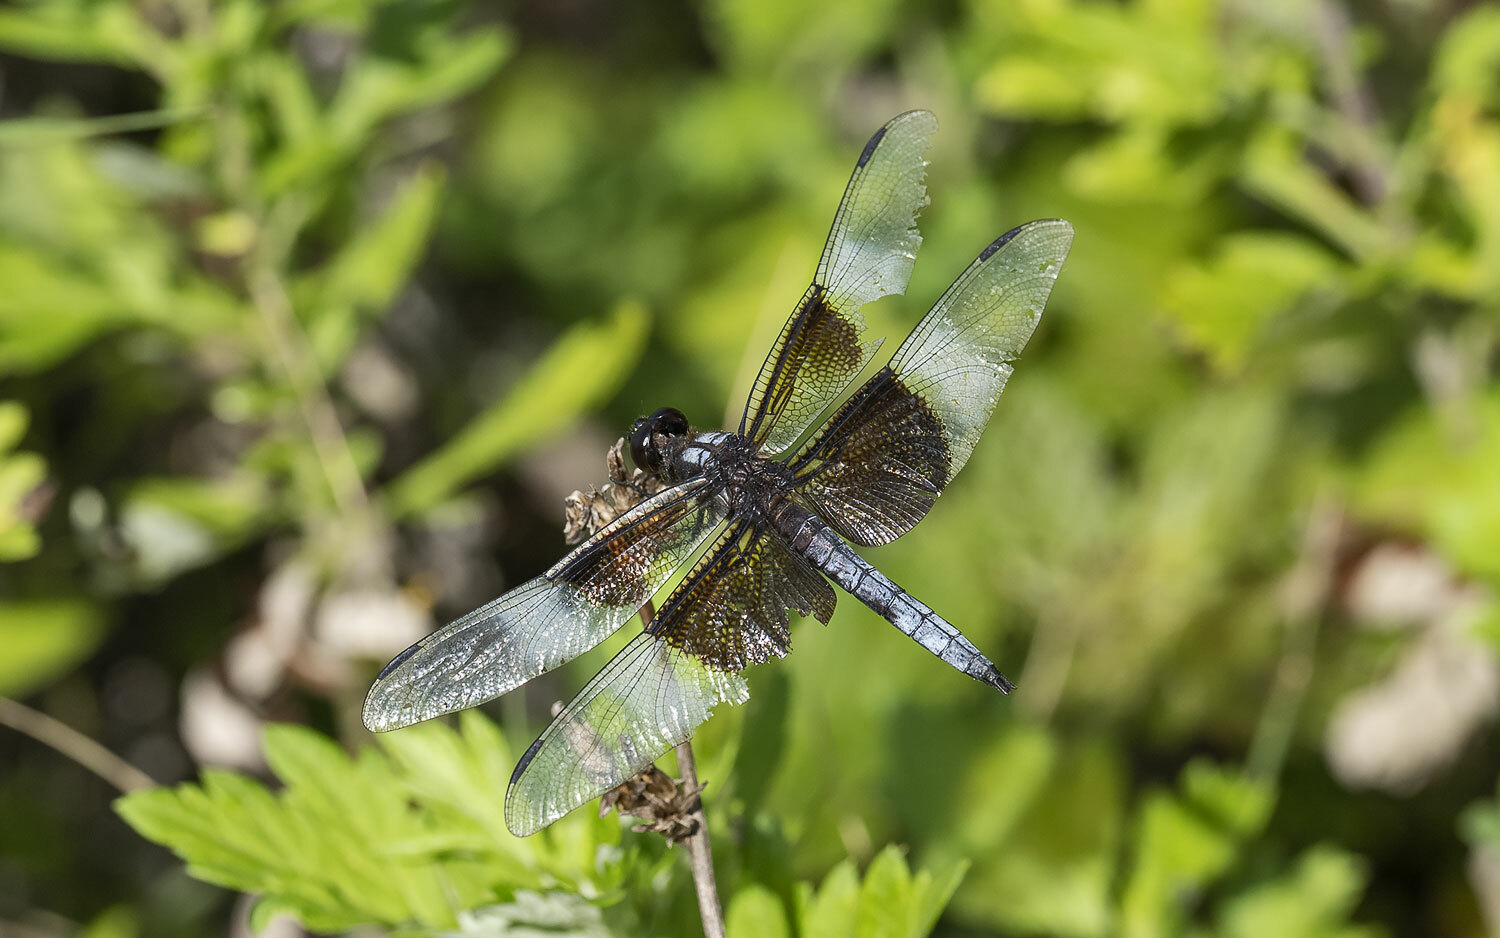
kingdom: Animalia
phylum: Arthropoda
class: Insecta
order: Odonata
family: Libellulidae
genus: Libellula
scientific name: Libellula luctuosa
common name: Widow skimmer
